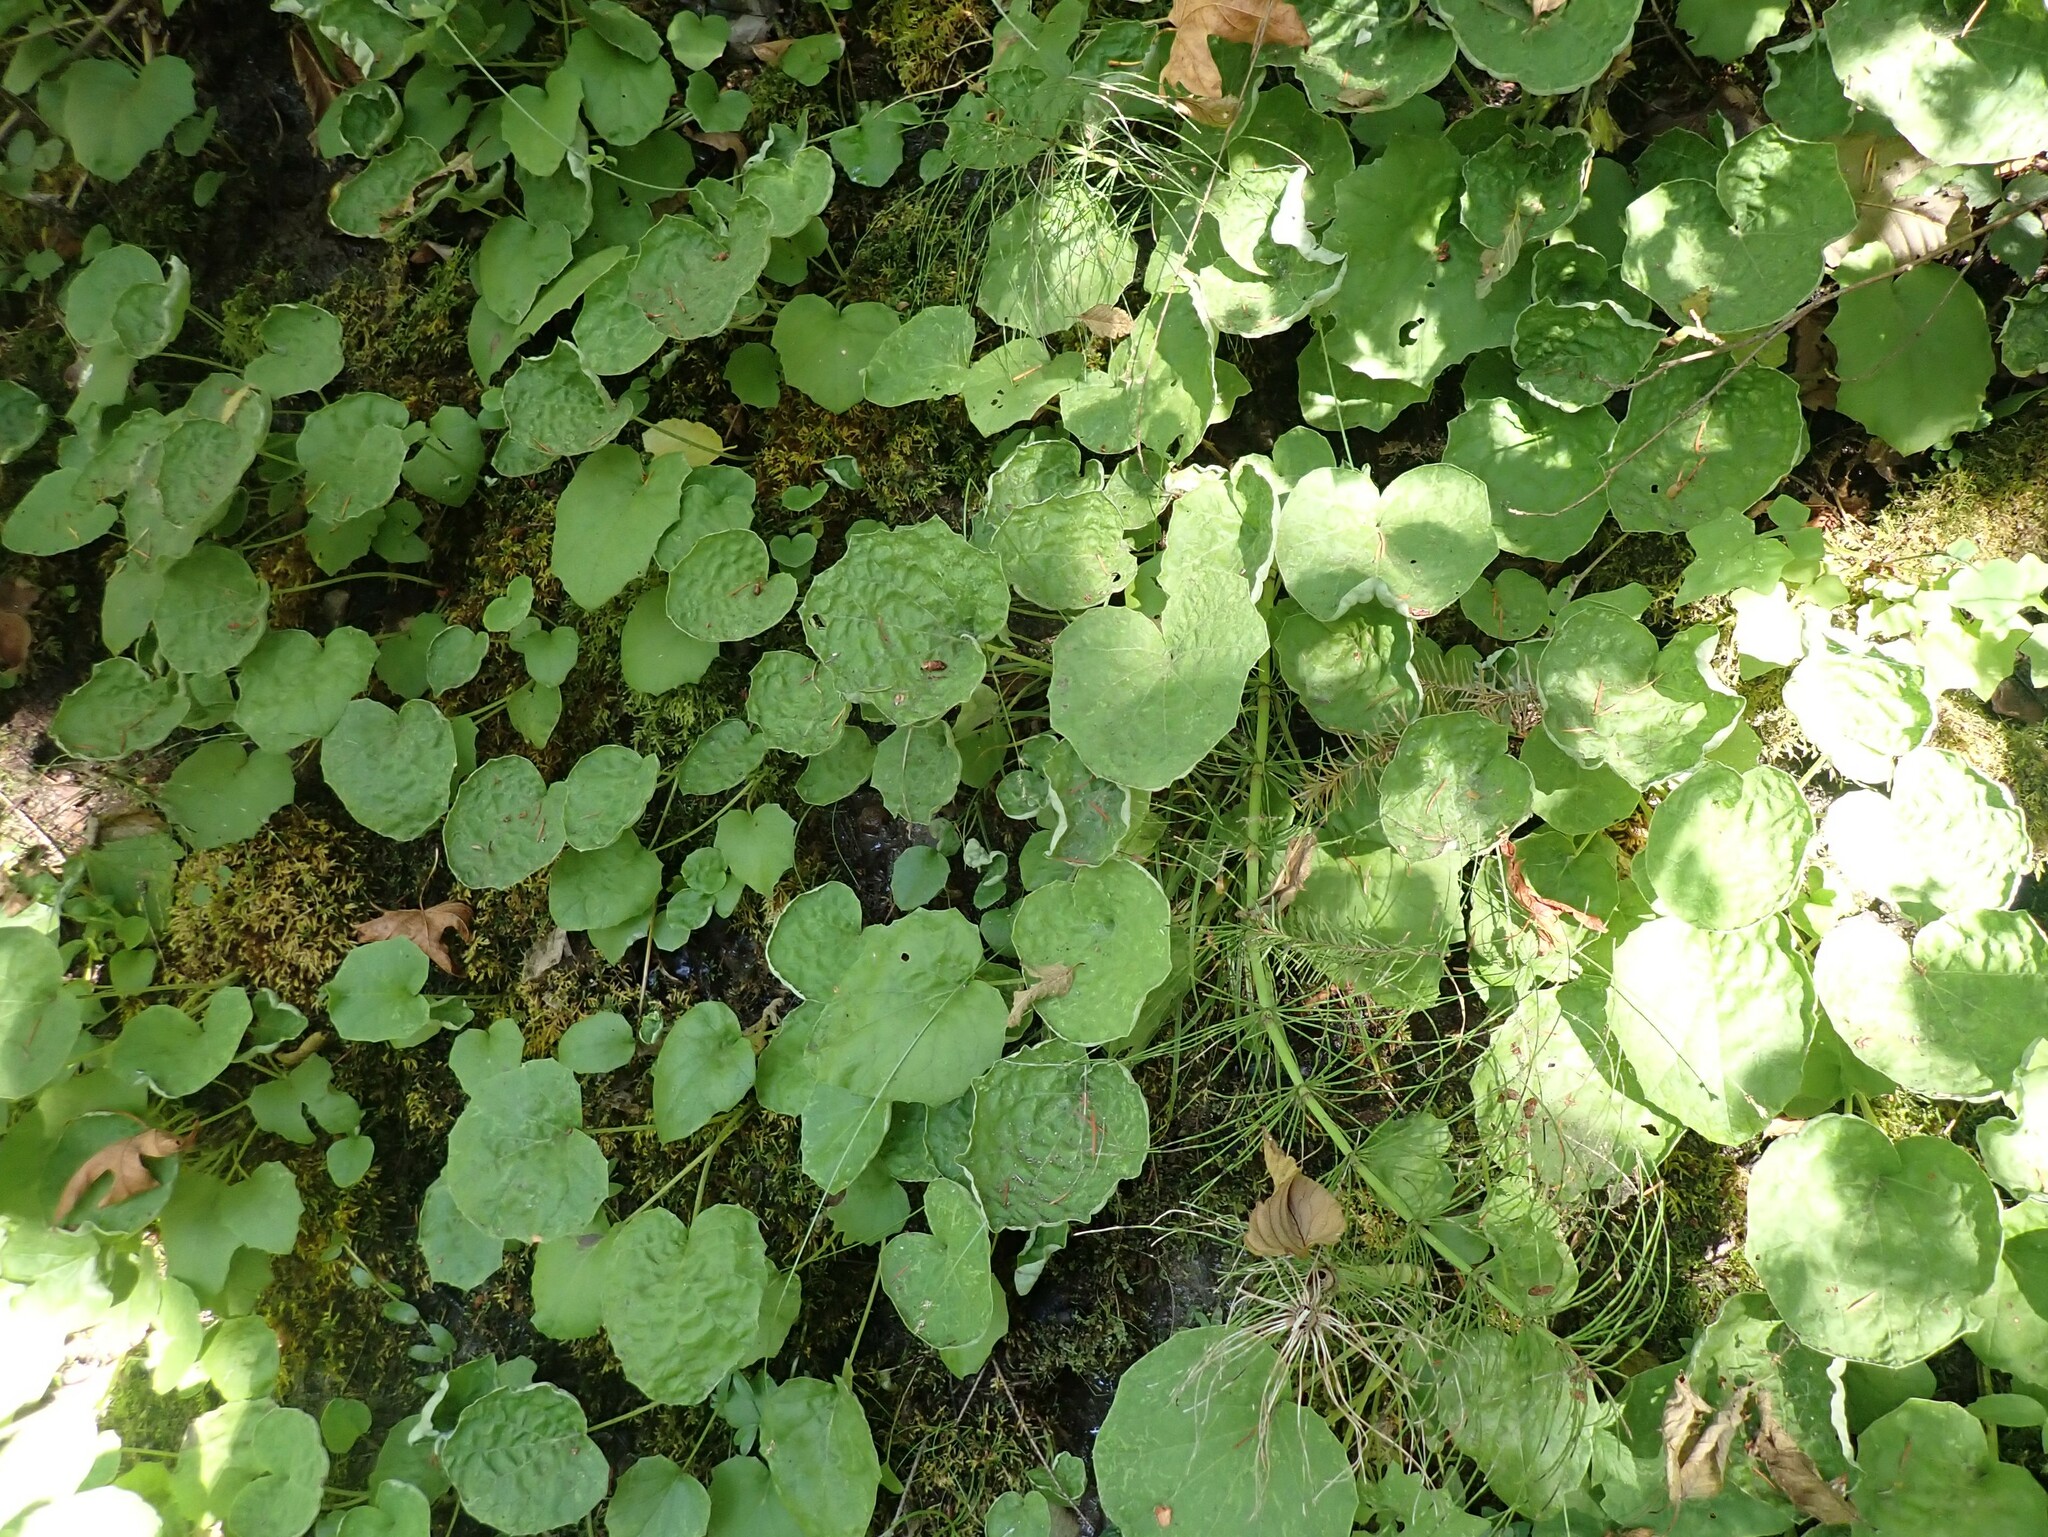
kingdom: Plantae
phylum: Tracheophyta
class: Magnoliopsida
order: Asterales
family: Asteraceae
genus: Tussilago
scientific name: Tussilago farfara
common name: Coltsfoot
